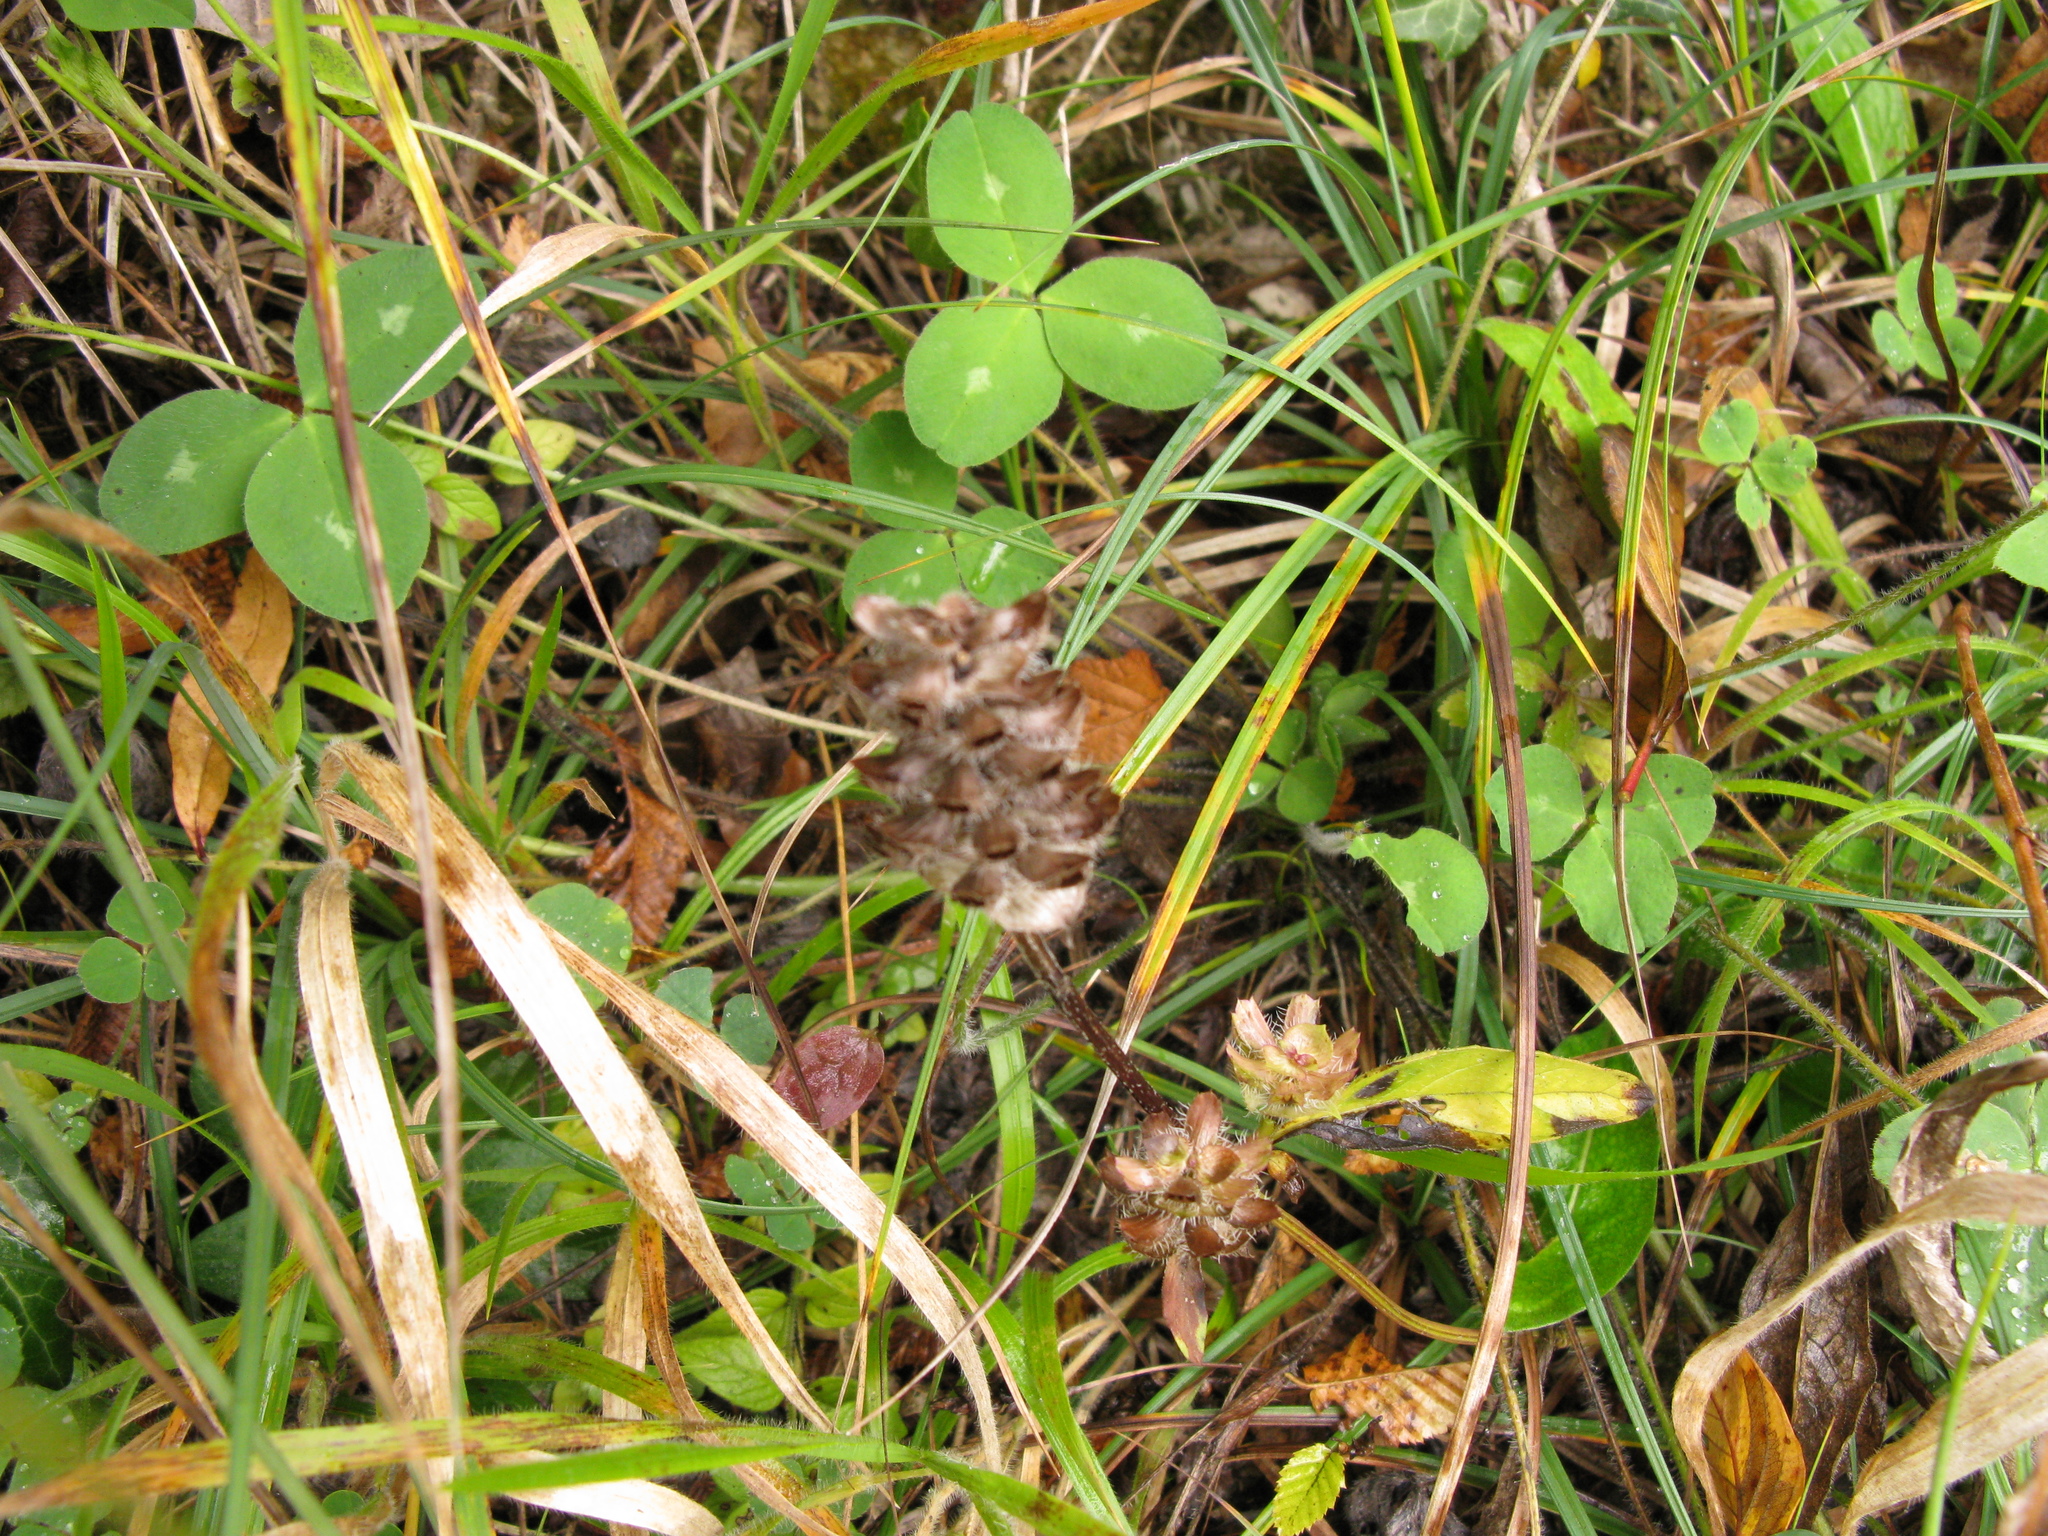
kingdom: Plantae
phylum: Tracheophyta
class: Magnoliopsida
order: Lamiales
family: Lamiaceae
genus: Prunella
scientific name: Prunella vulgaris
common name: Heal-all
